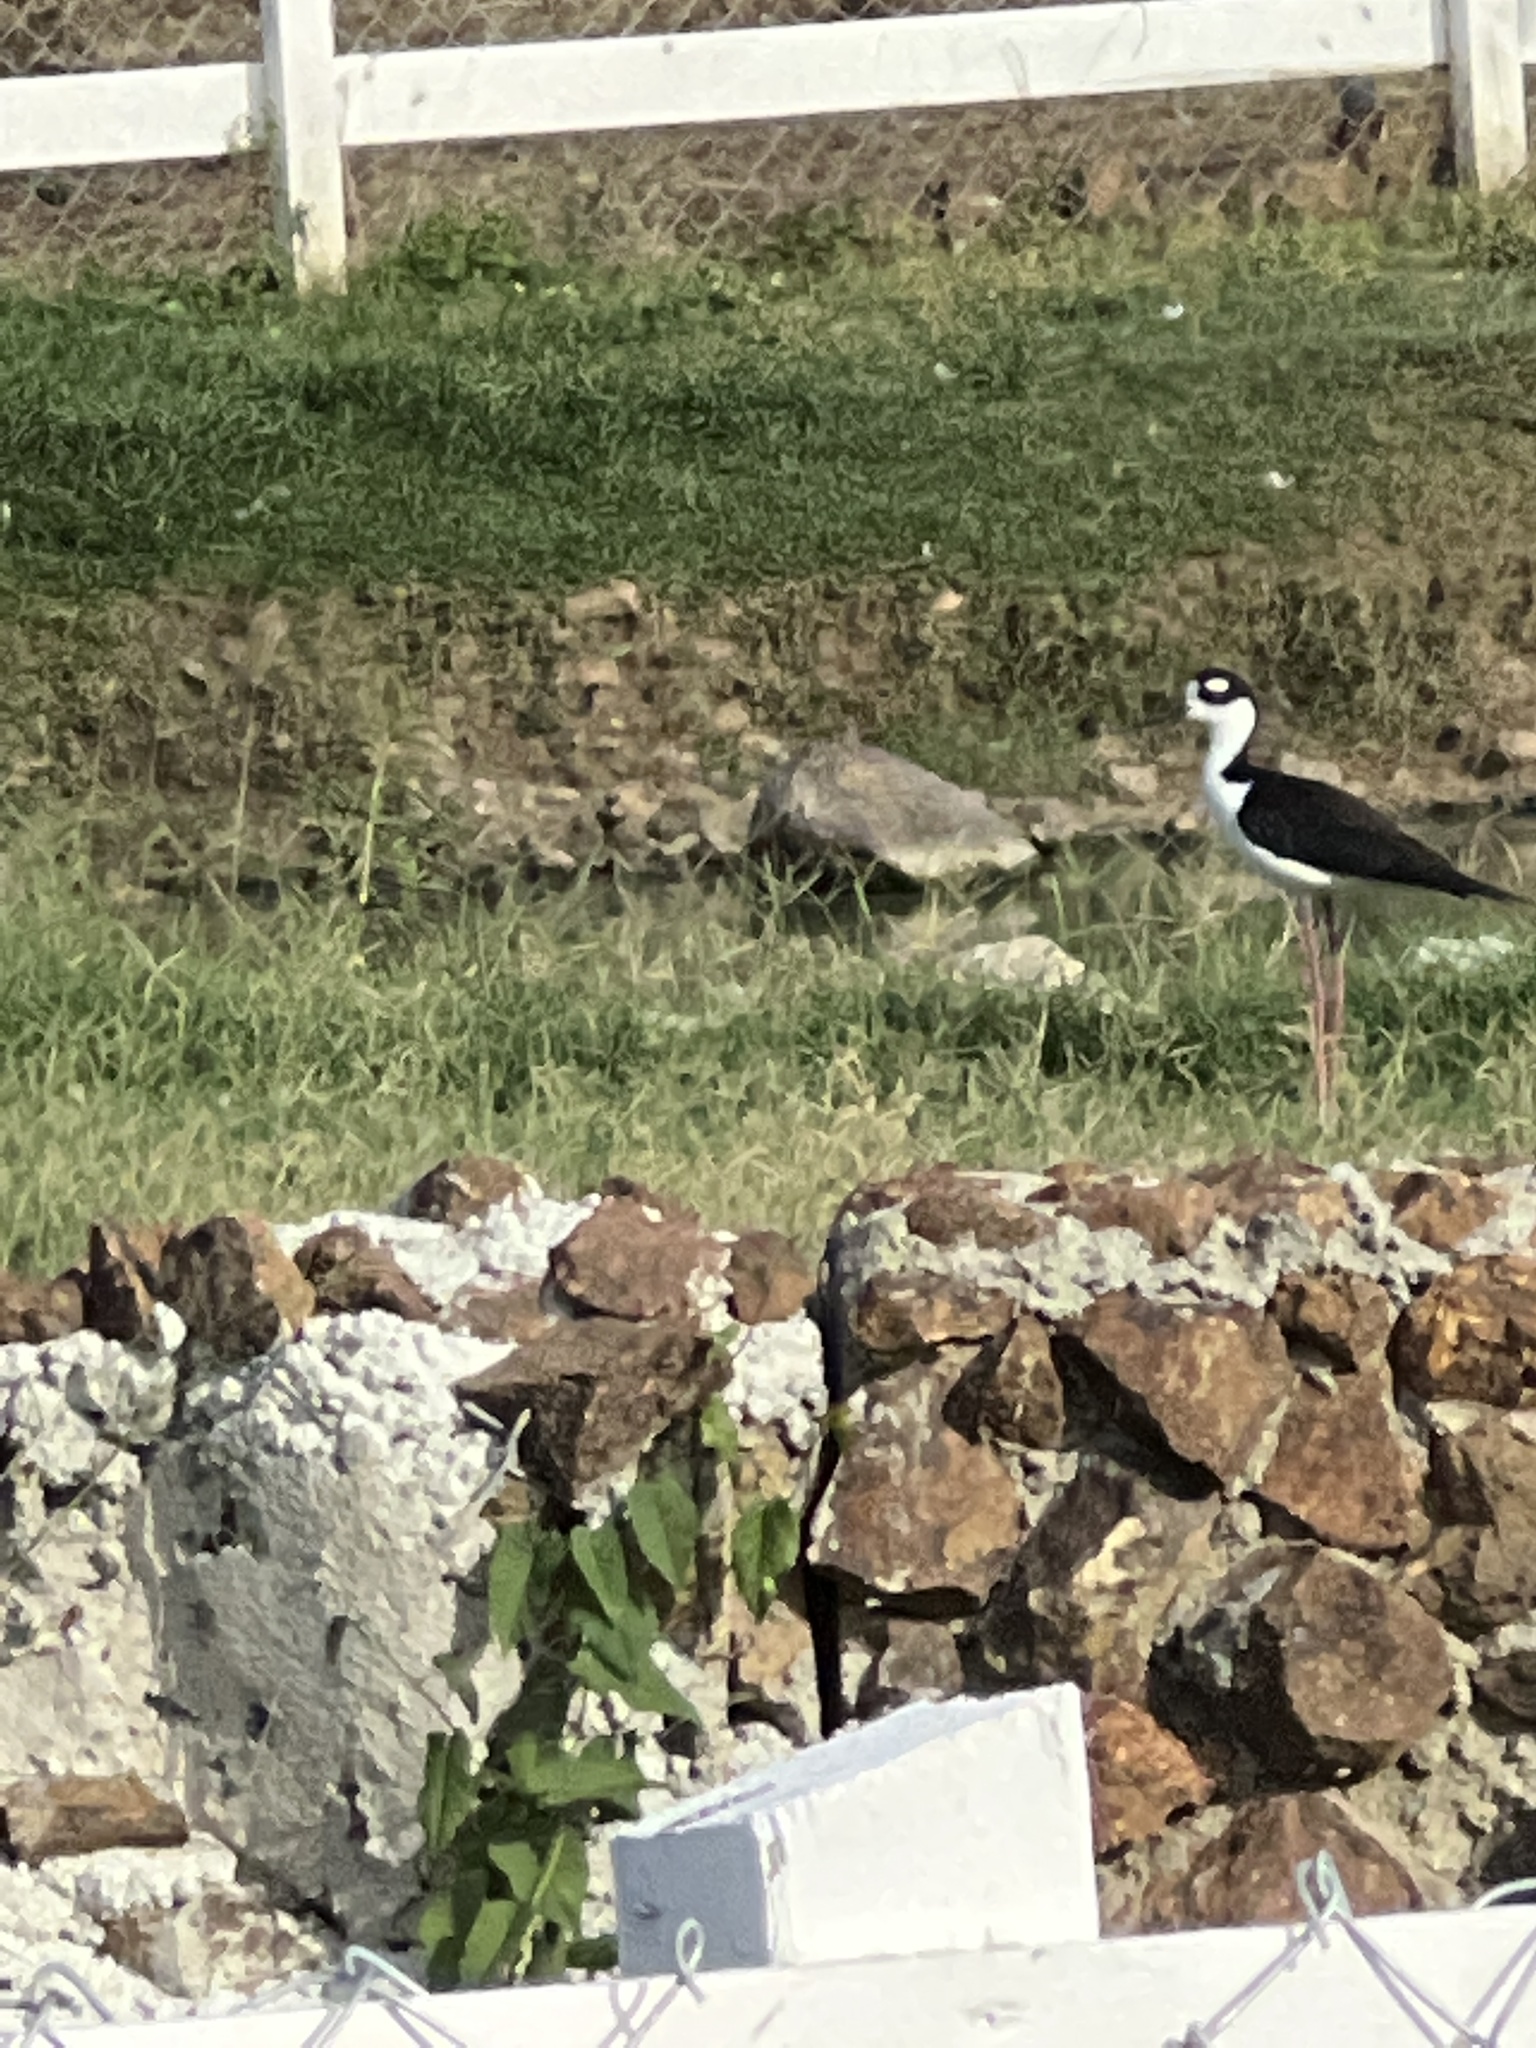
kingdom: Animalia
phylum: Chordata
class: Aves
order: Charadriiformes
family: Recurvirostridae
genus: Himantopus
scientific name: Himantopus mexicanus
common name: Black-necked stilt
